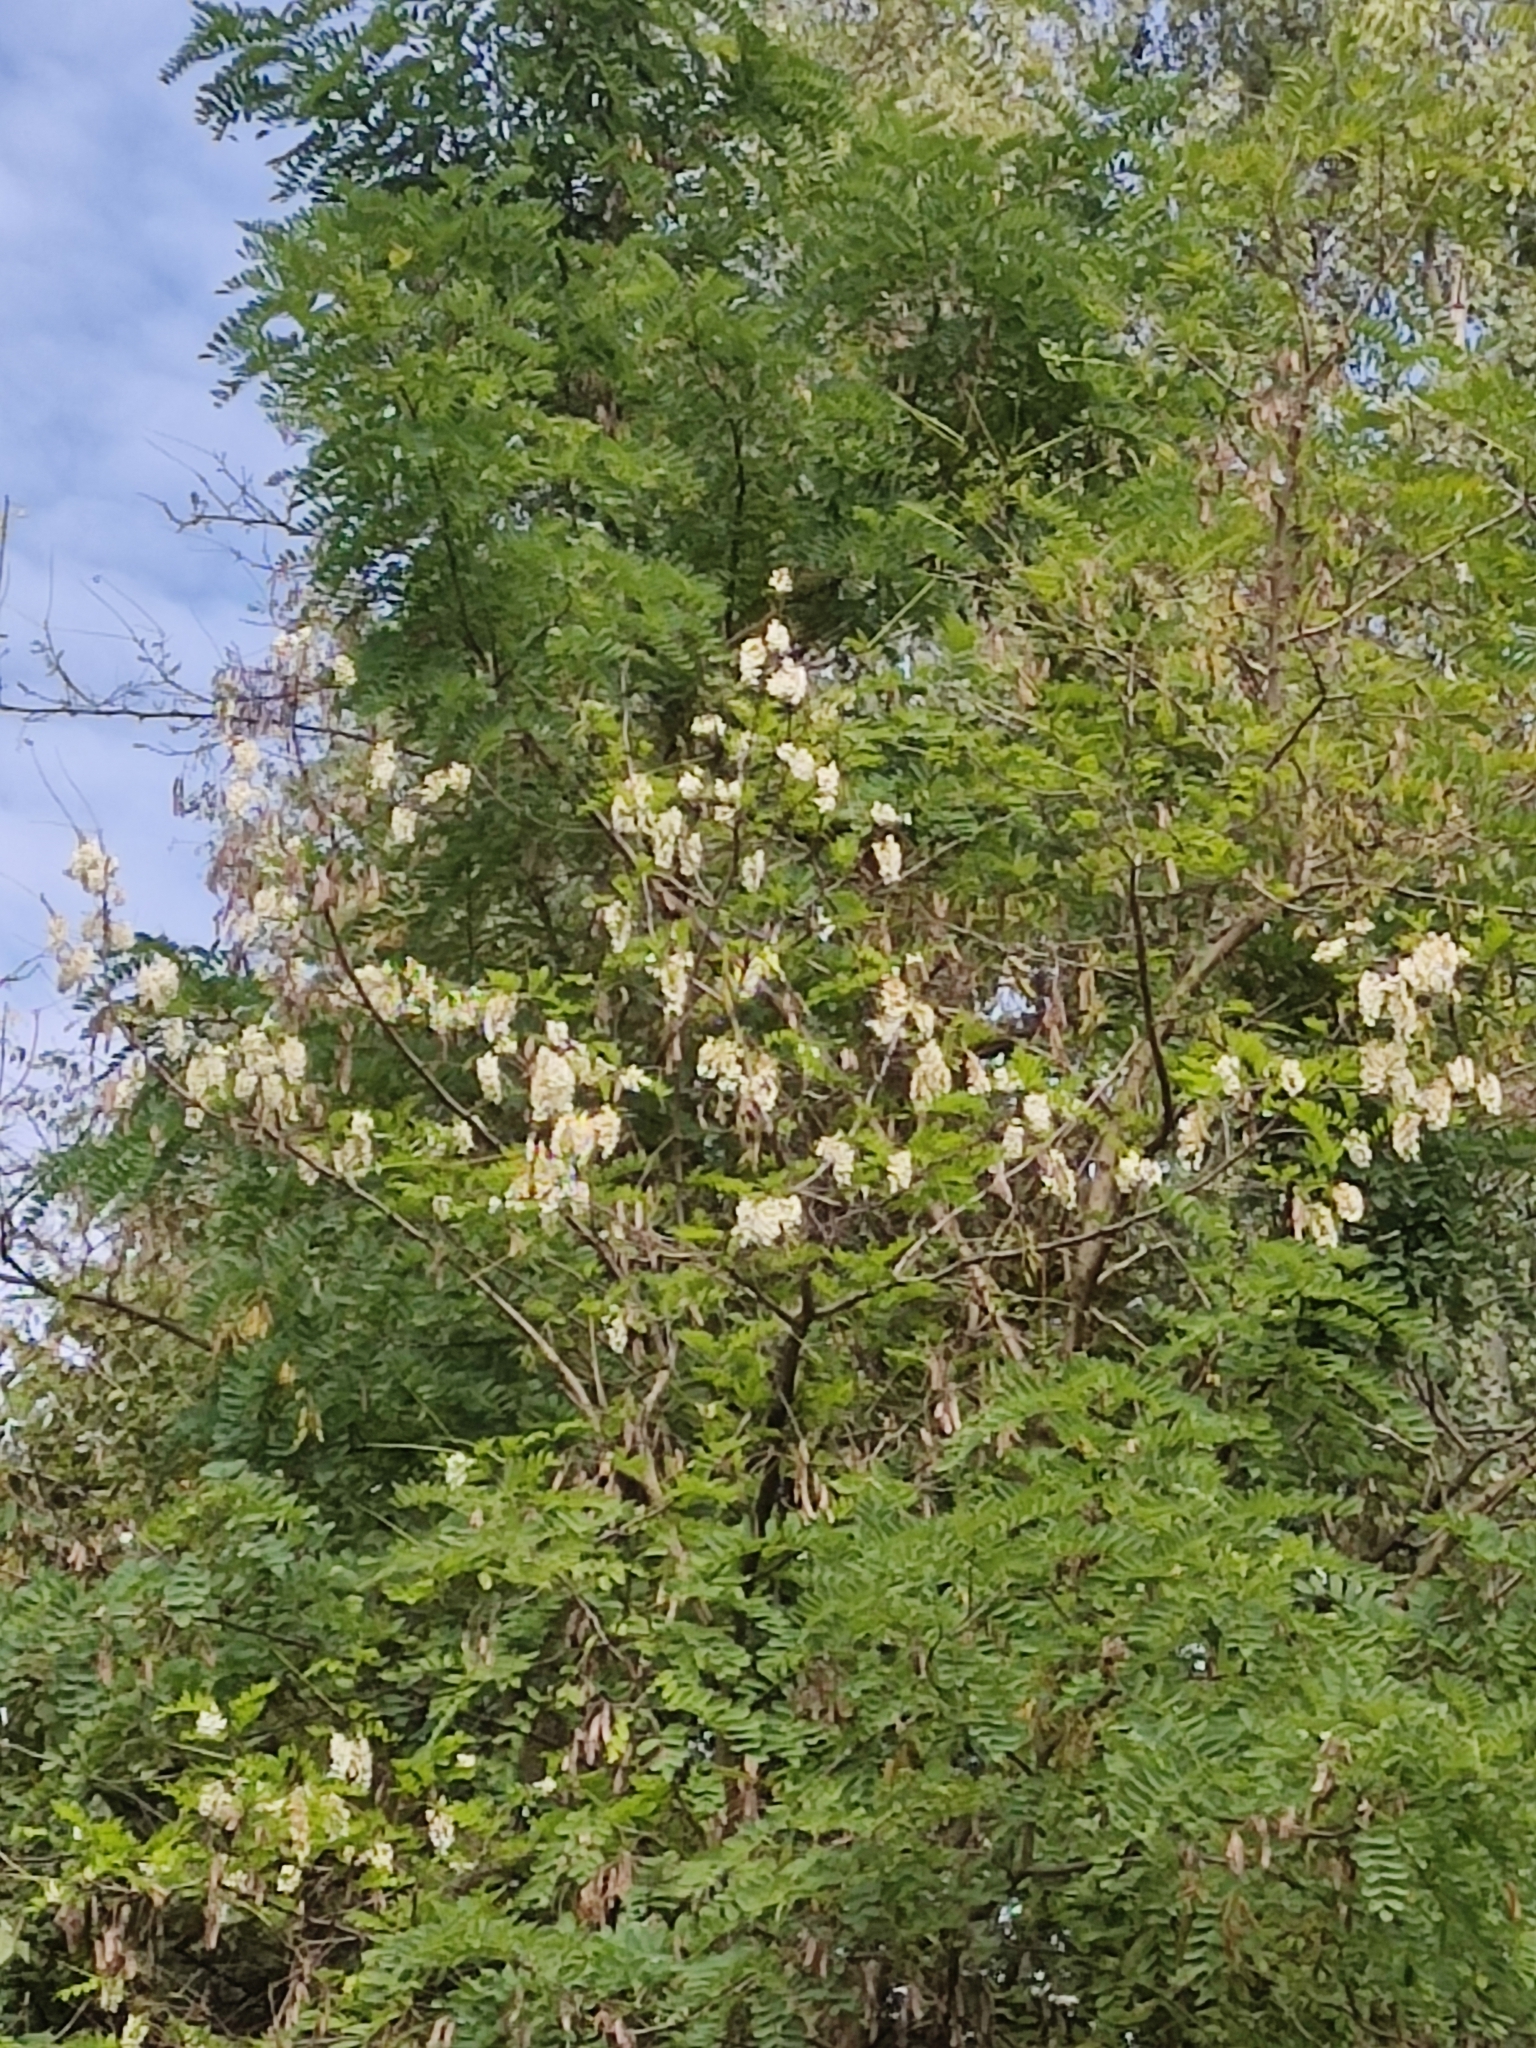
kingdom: Plantae
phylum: Tracheophyta
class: Magnoliopsida
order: Fabales
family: Fabaceae
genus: Robinia
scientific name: Robinia pseudoacacia
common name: Black locust
